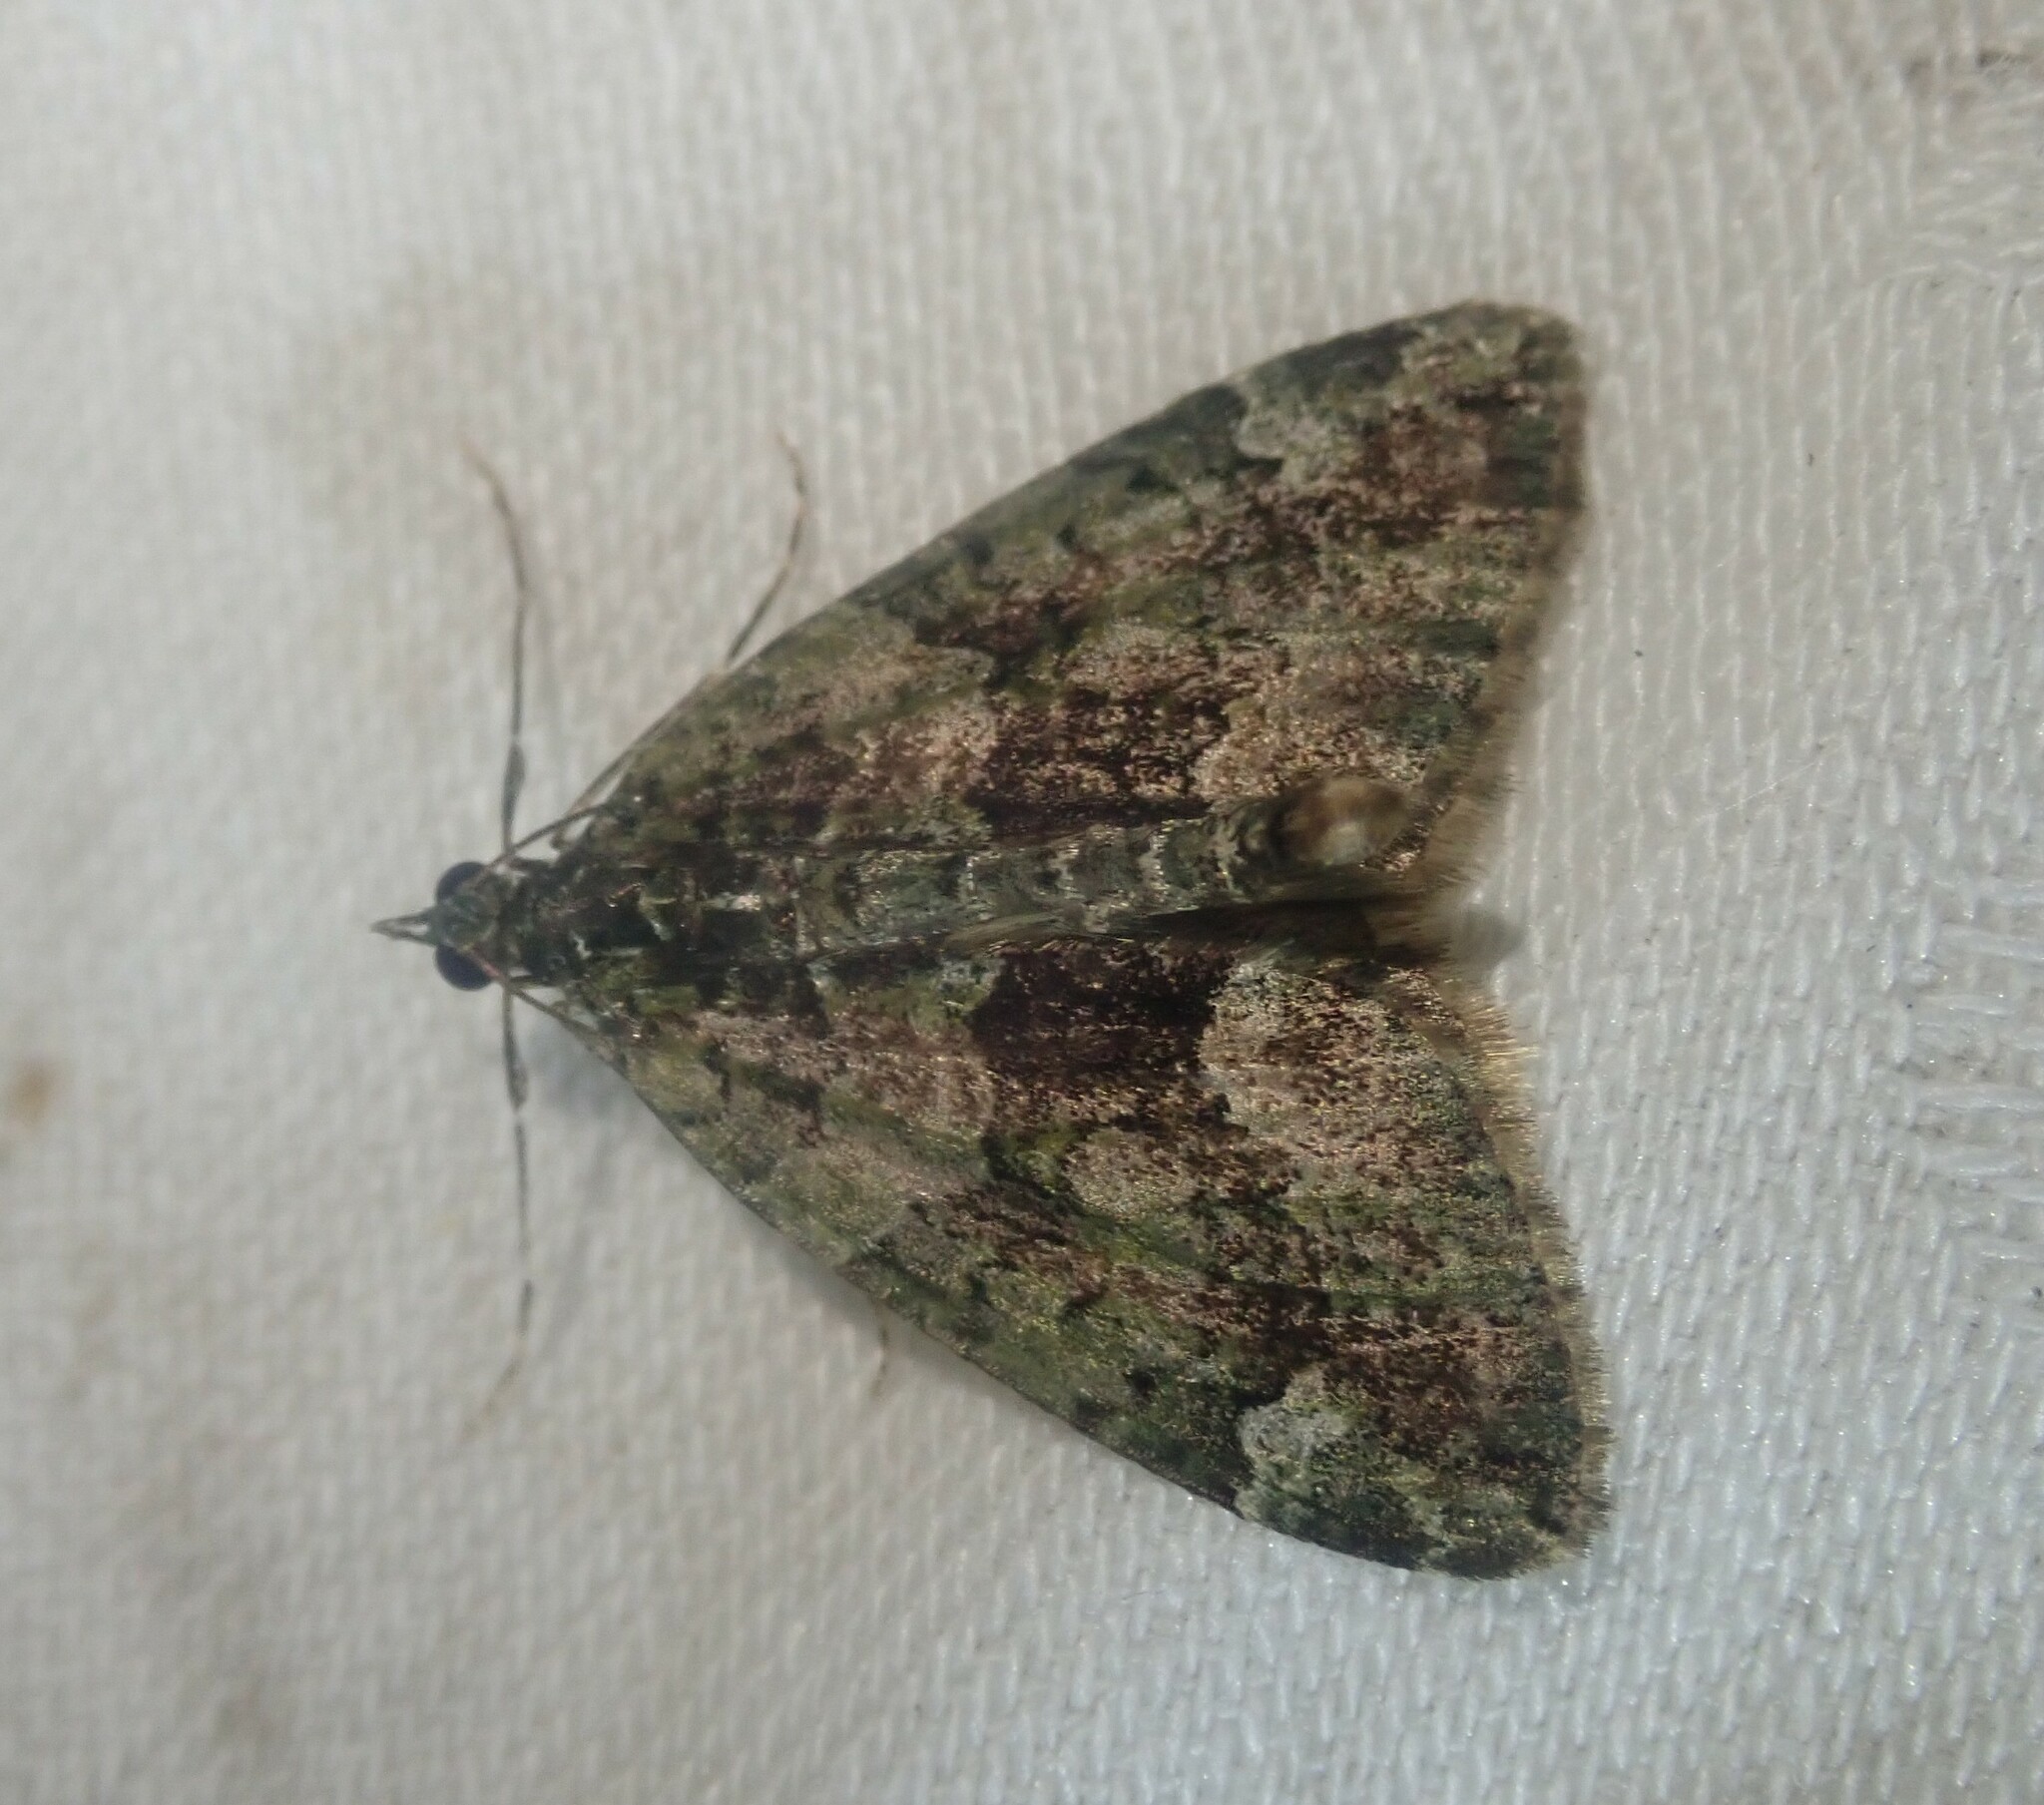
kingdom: Animalia
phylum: Arthropoda
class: Insecta
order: Lepidoptera
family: Geometridae
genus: Chloroclysta
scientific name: Chloroclysta siterata
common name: Red-green carpet
